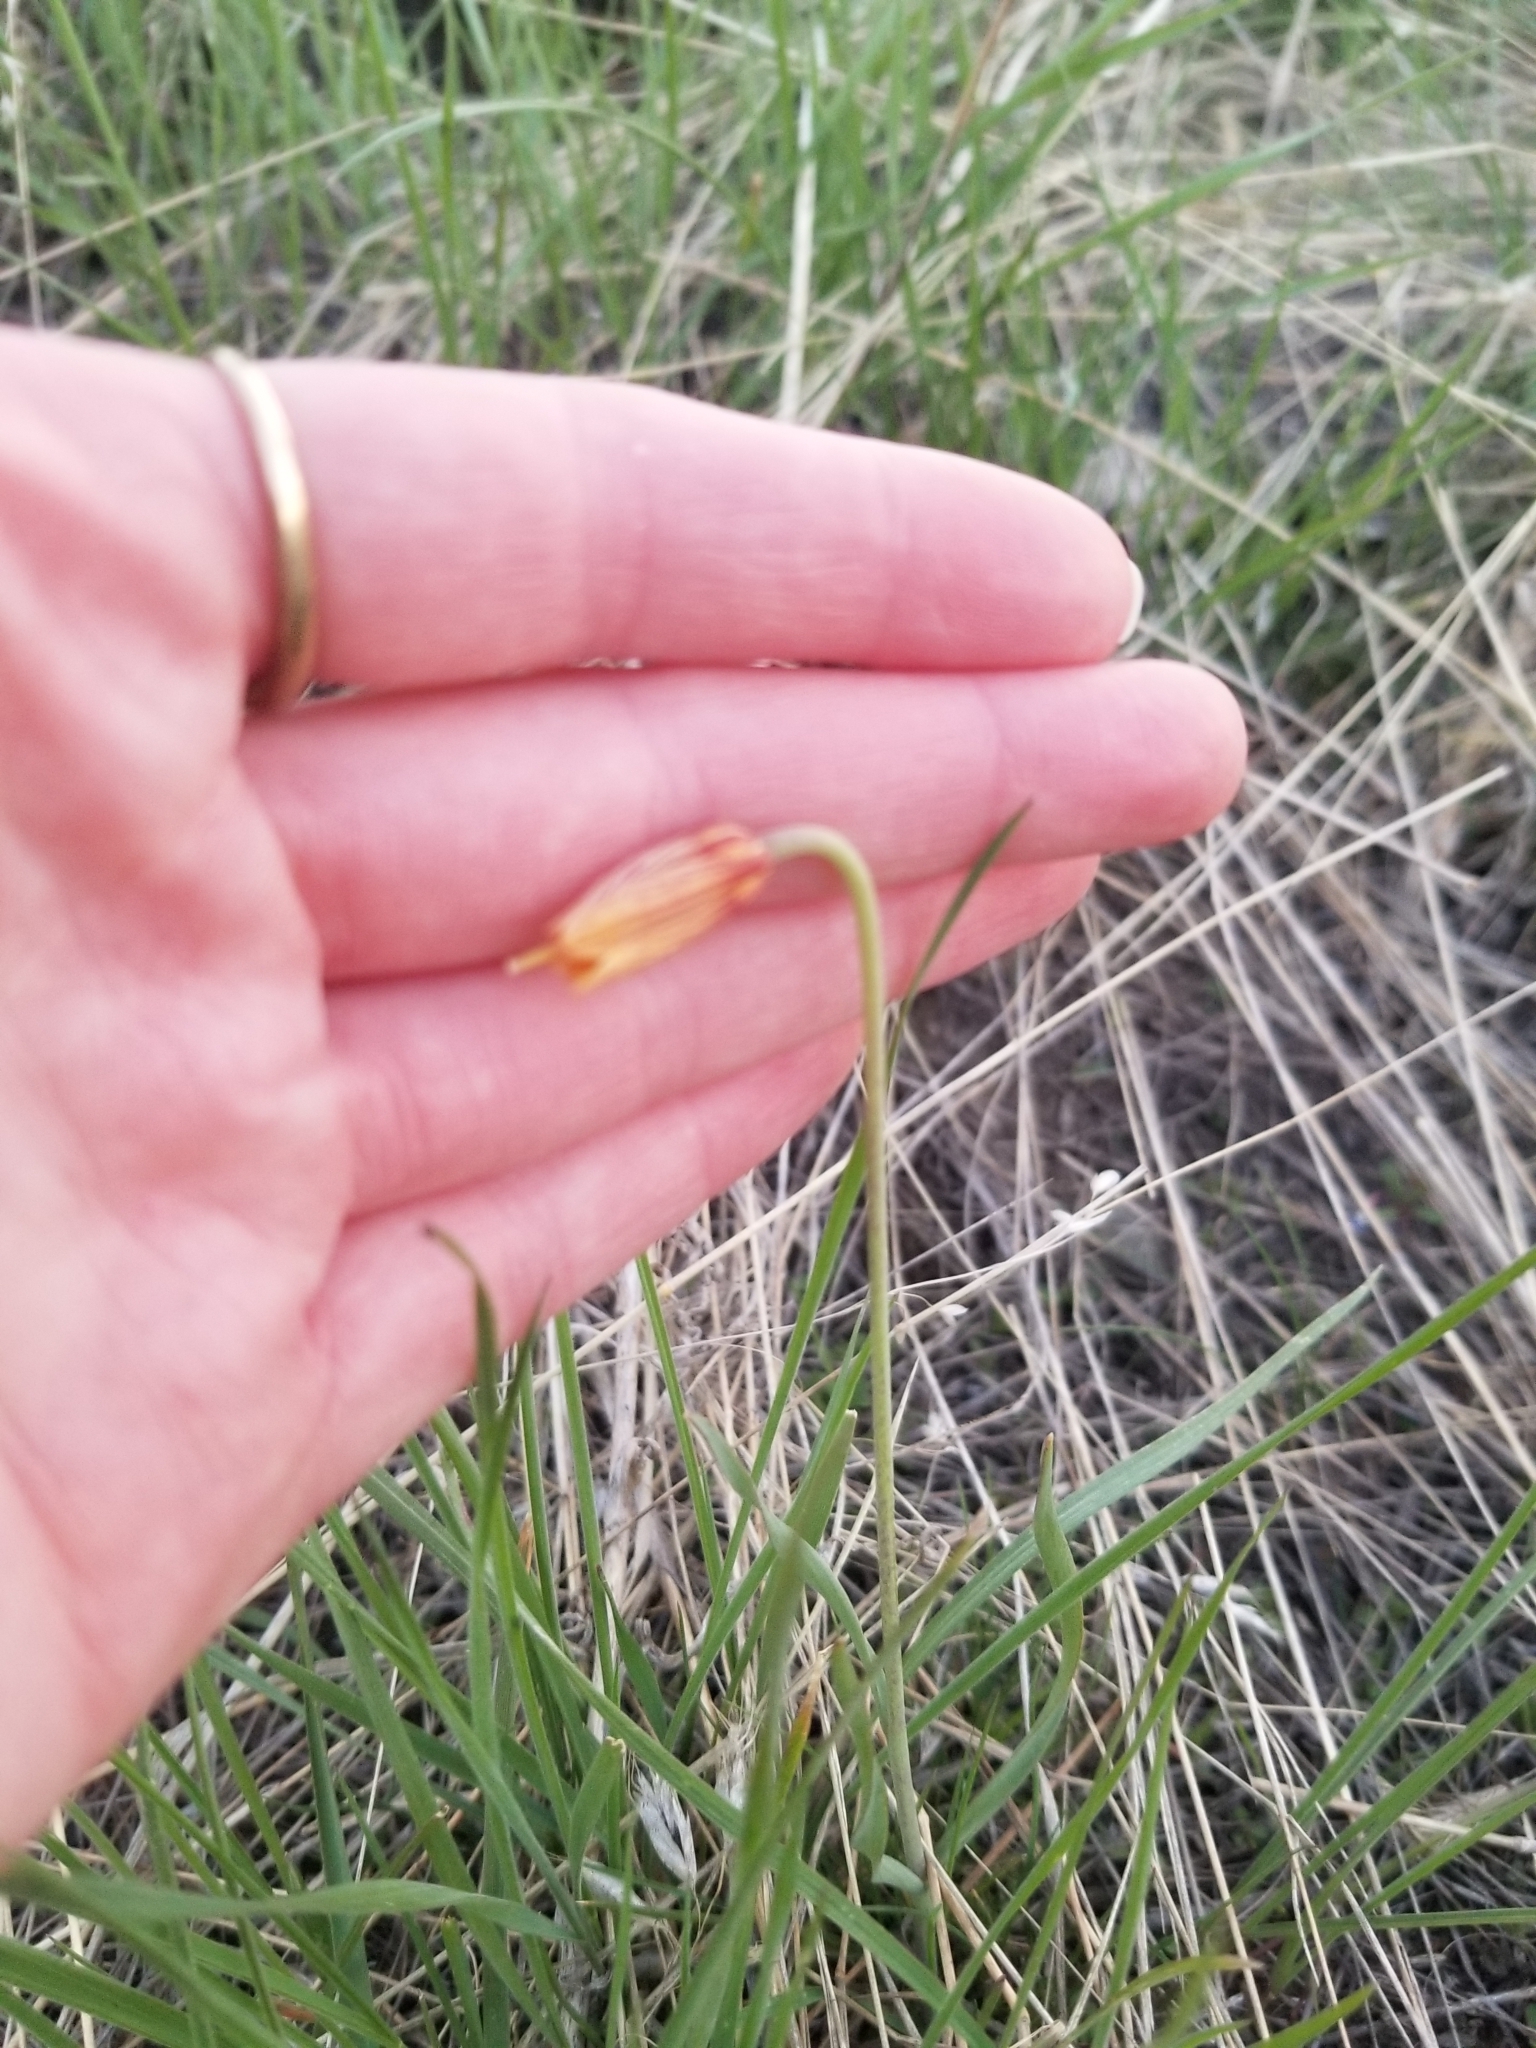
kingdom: Plantae
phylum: Tracheophyta
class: Liliopsida
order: Liliales
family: Liliaceae
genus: Fritillaria
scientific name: Fritillaria pudica
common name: Yellow fritillary
